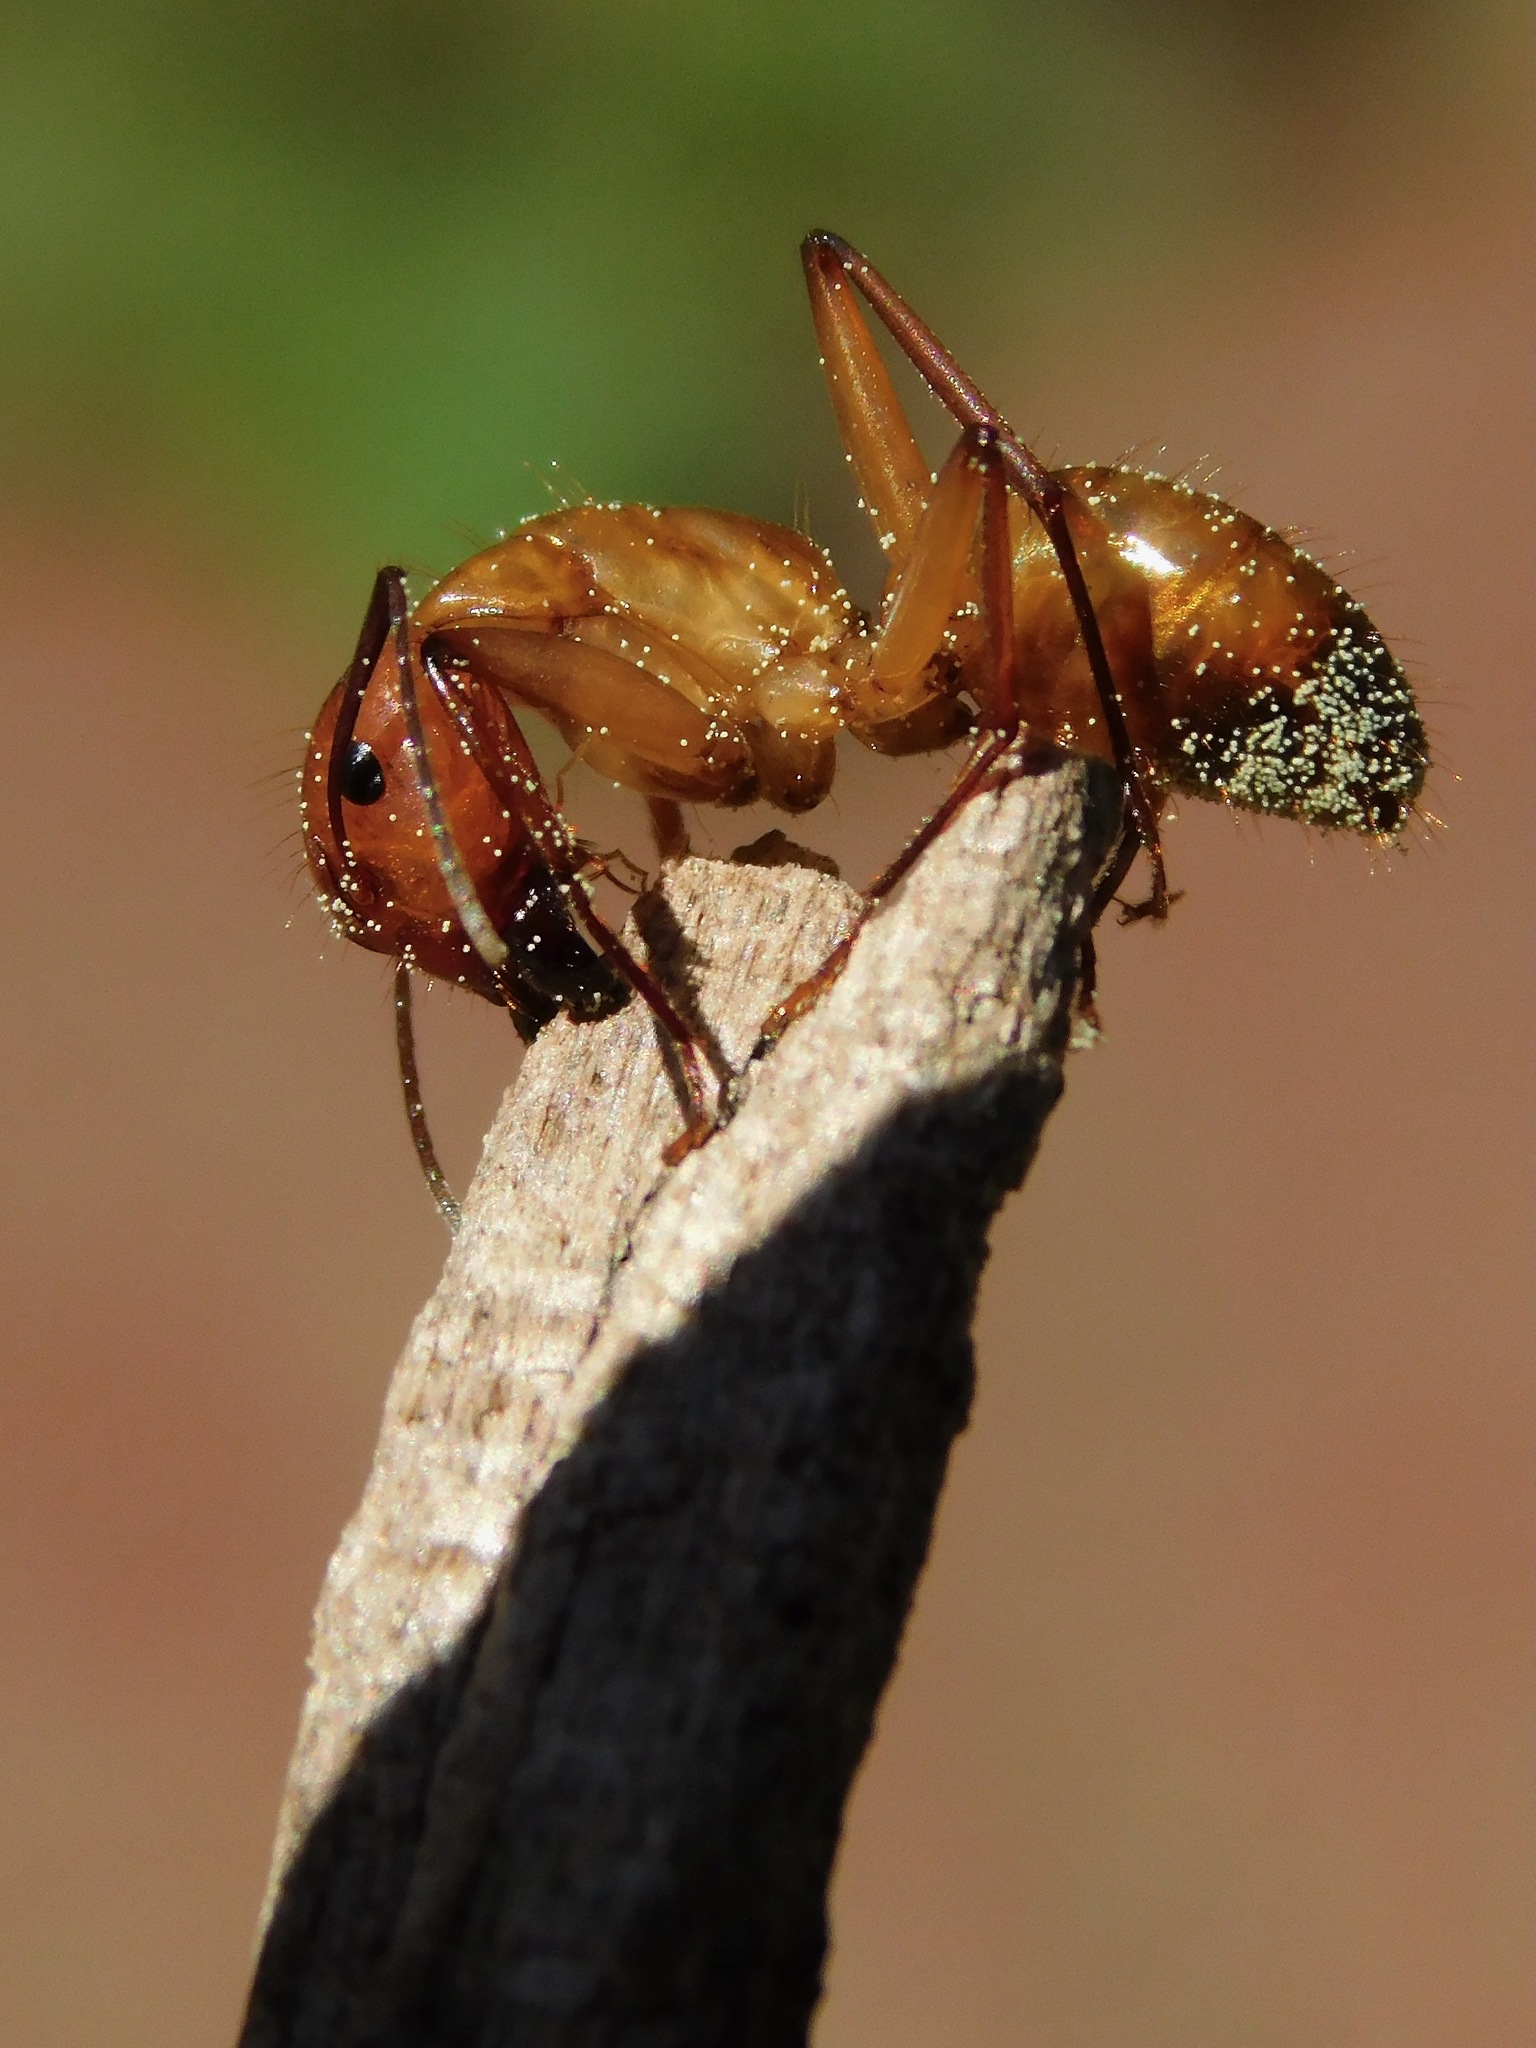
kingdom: Animalia
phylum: Arthropoda
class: Insecta
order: Hymenoptera
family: Formicidae
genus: Camponotus
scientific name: Camponotus castaneus
